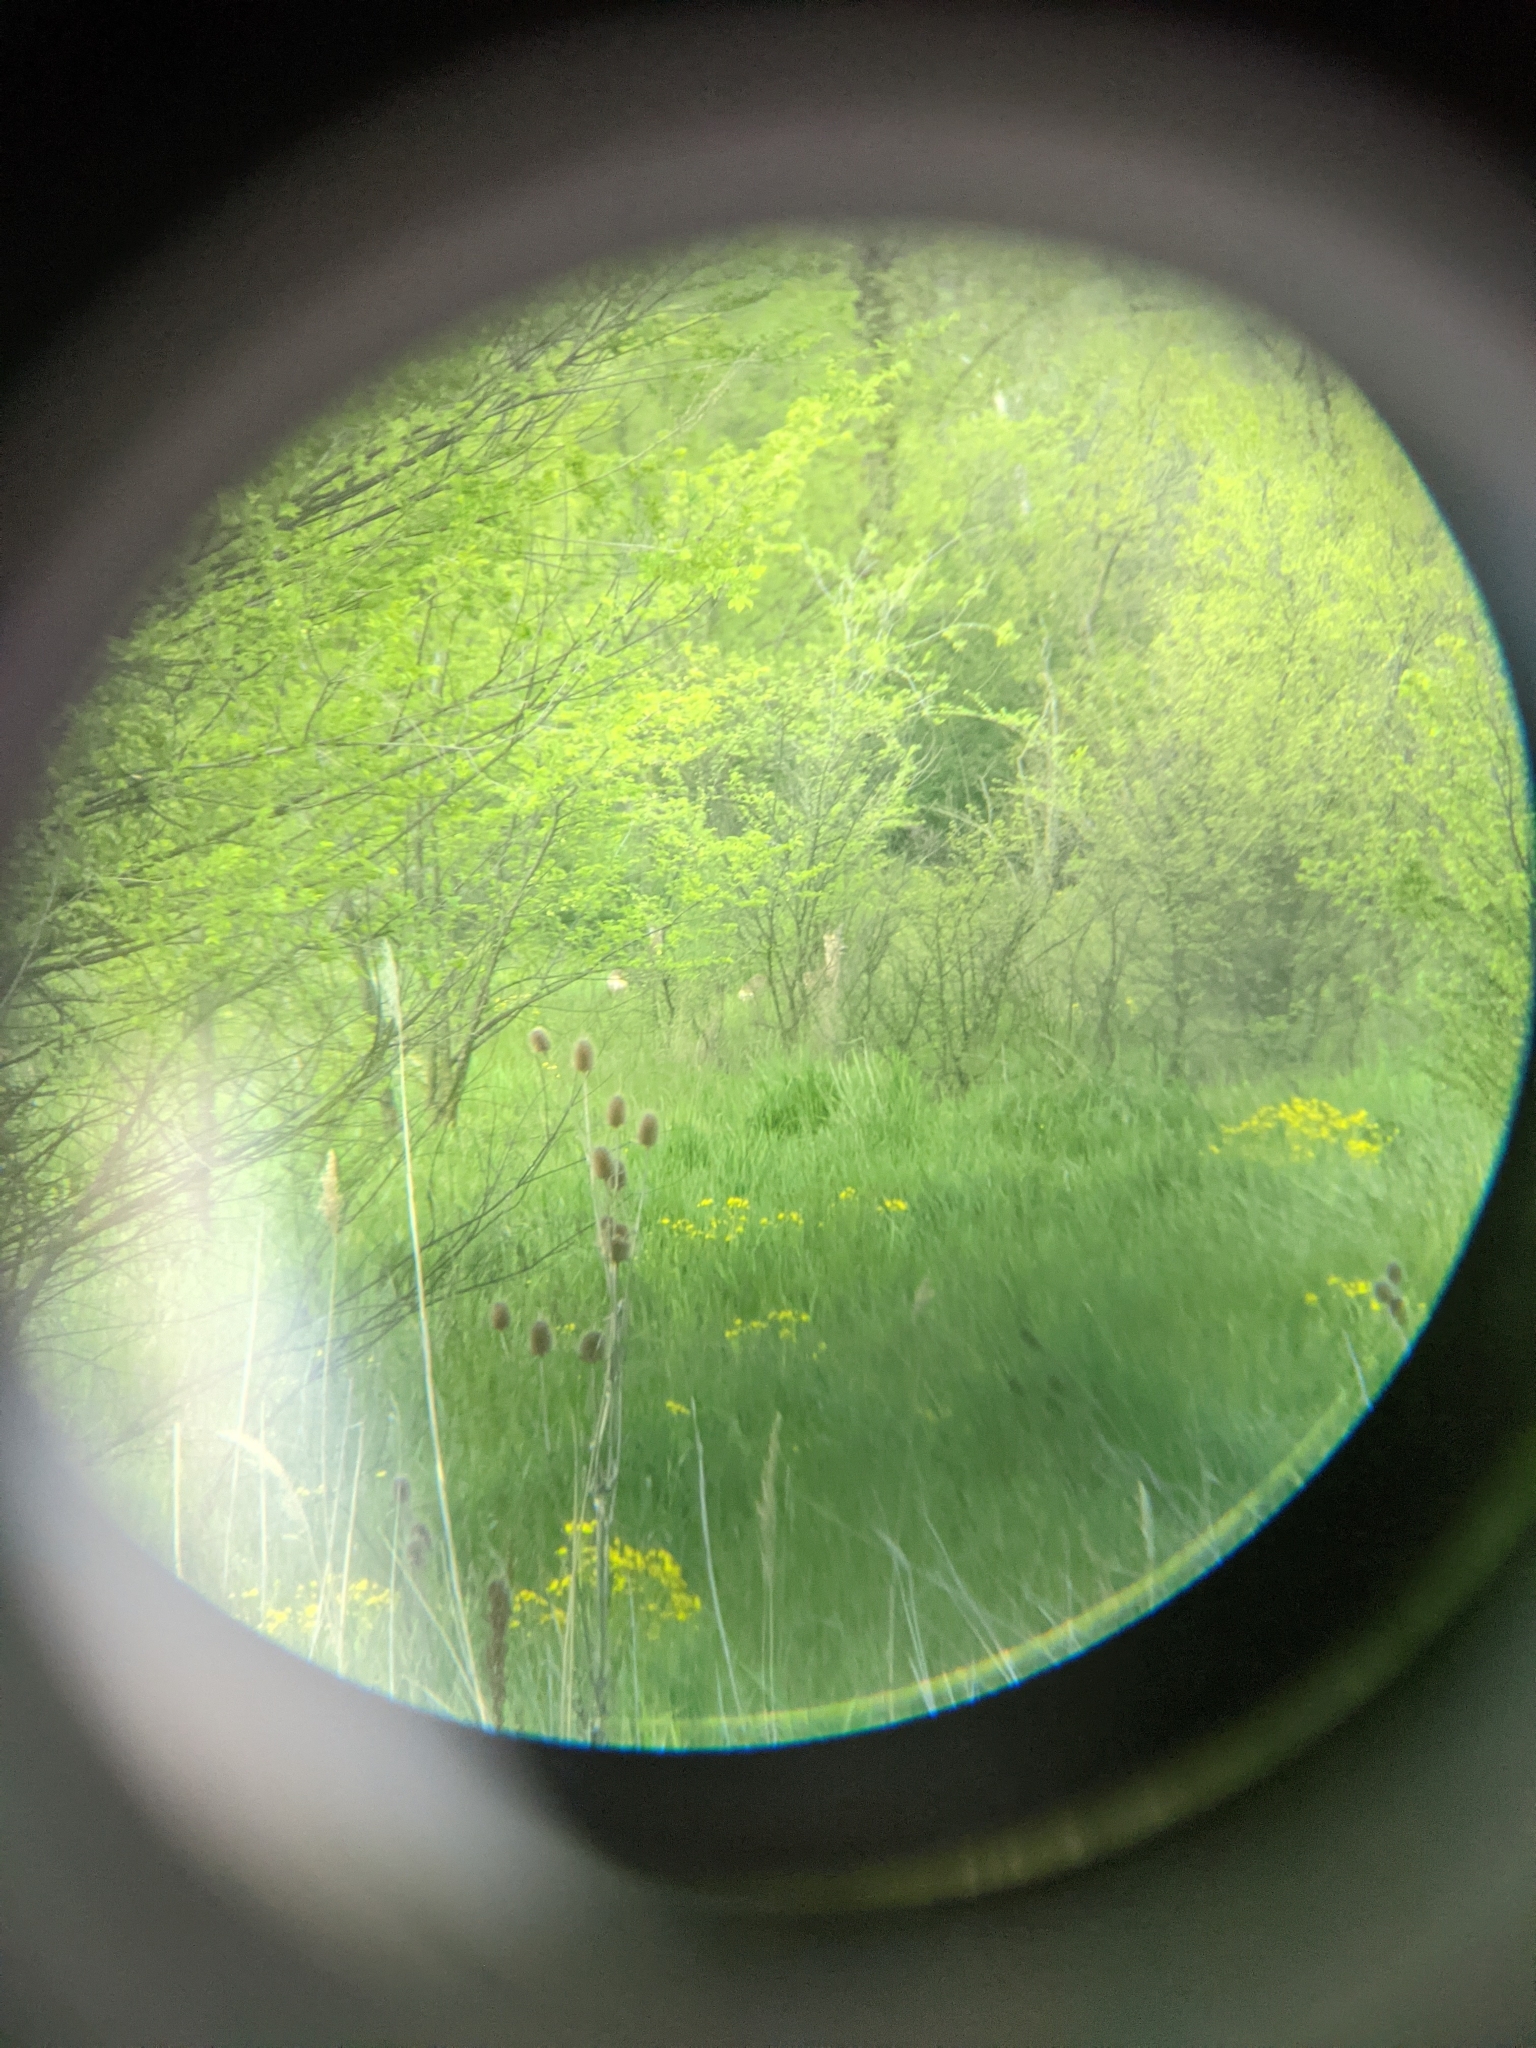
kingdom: Animalia
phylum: Chordata
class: Mammalia
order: Artiodactyla
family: Cervidae
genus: Capreolus
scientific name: Capreolus capreolus
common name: Western roe deer
